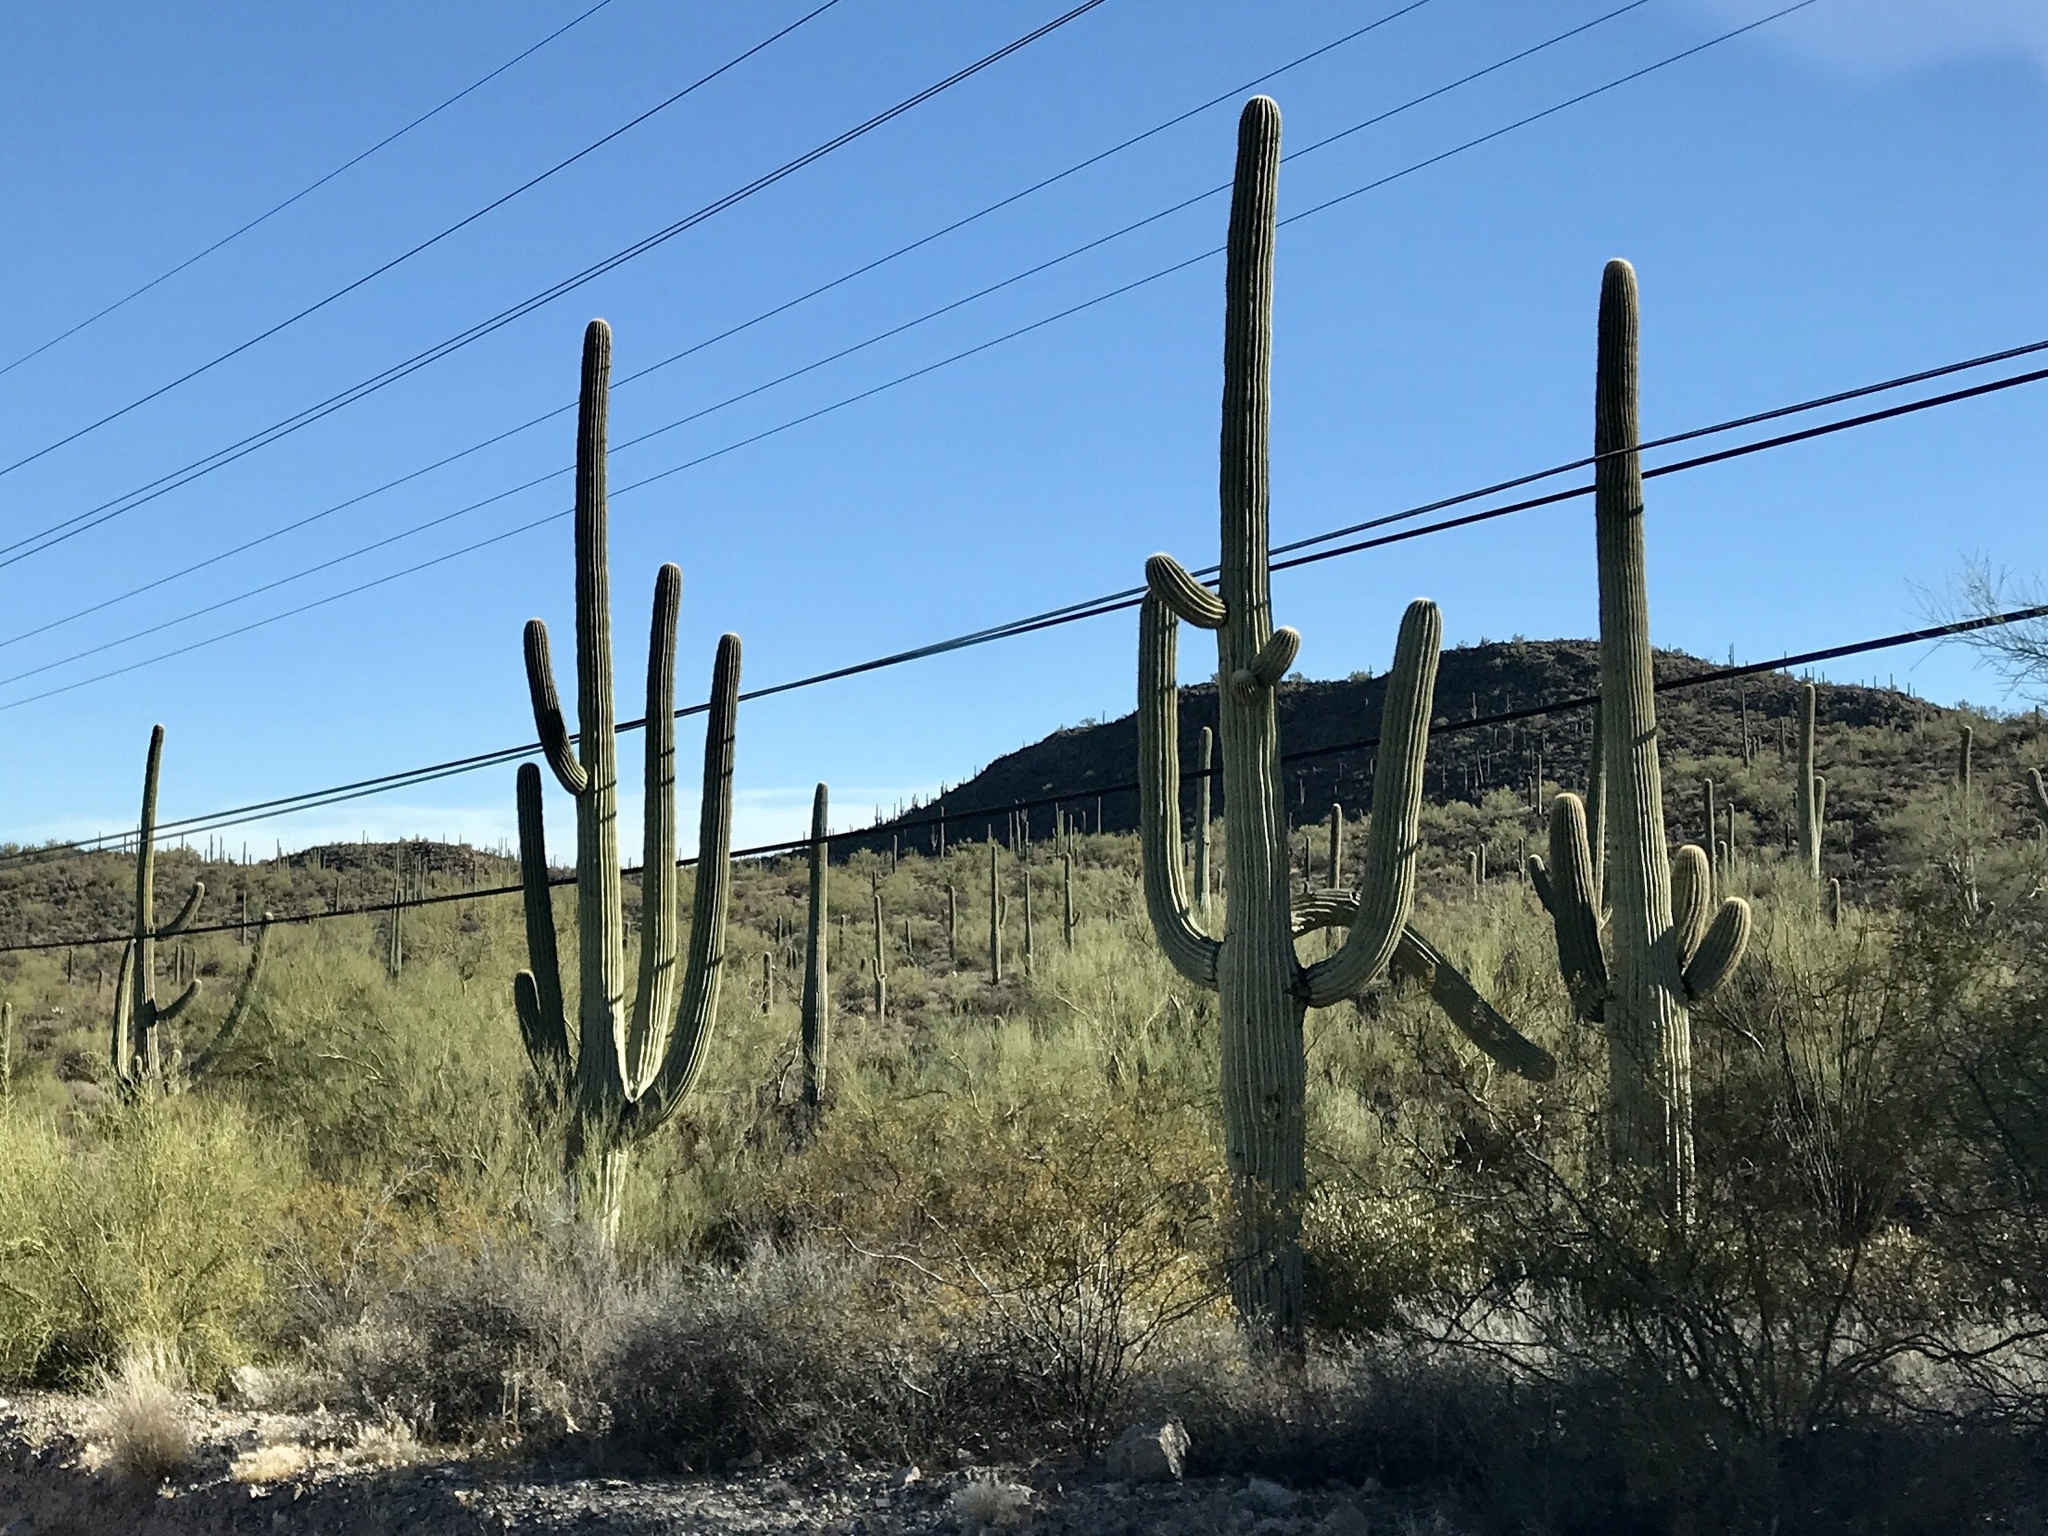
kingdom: Plantae
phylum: Tracheophyta
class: Magnoliopsida
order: Caryophyllales
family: Cactaceae
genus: Carnegiea
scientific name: Carnegiea gigantea
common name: Saguaro
